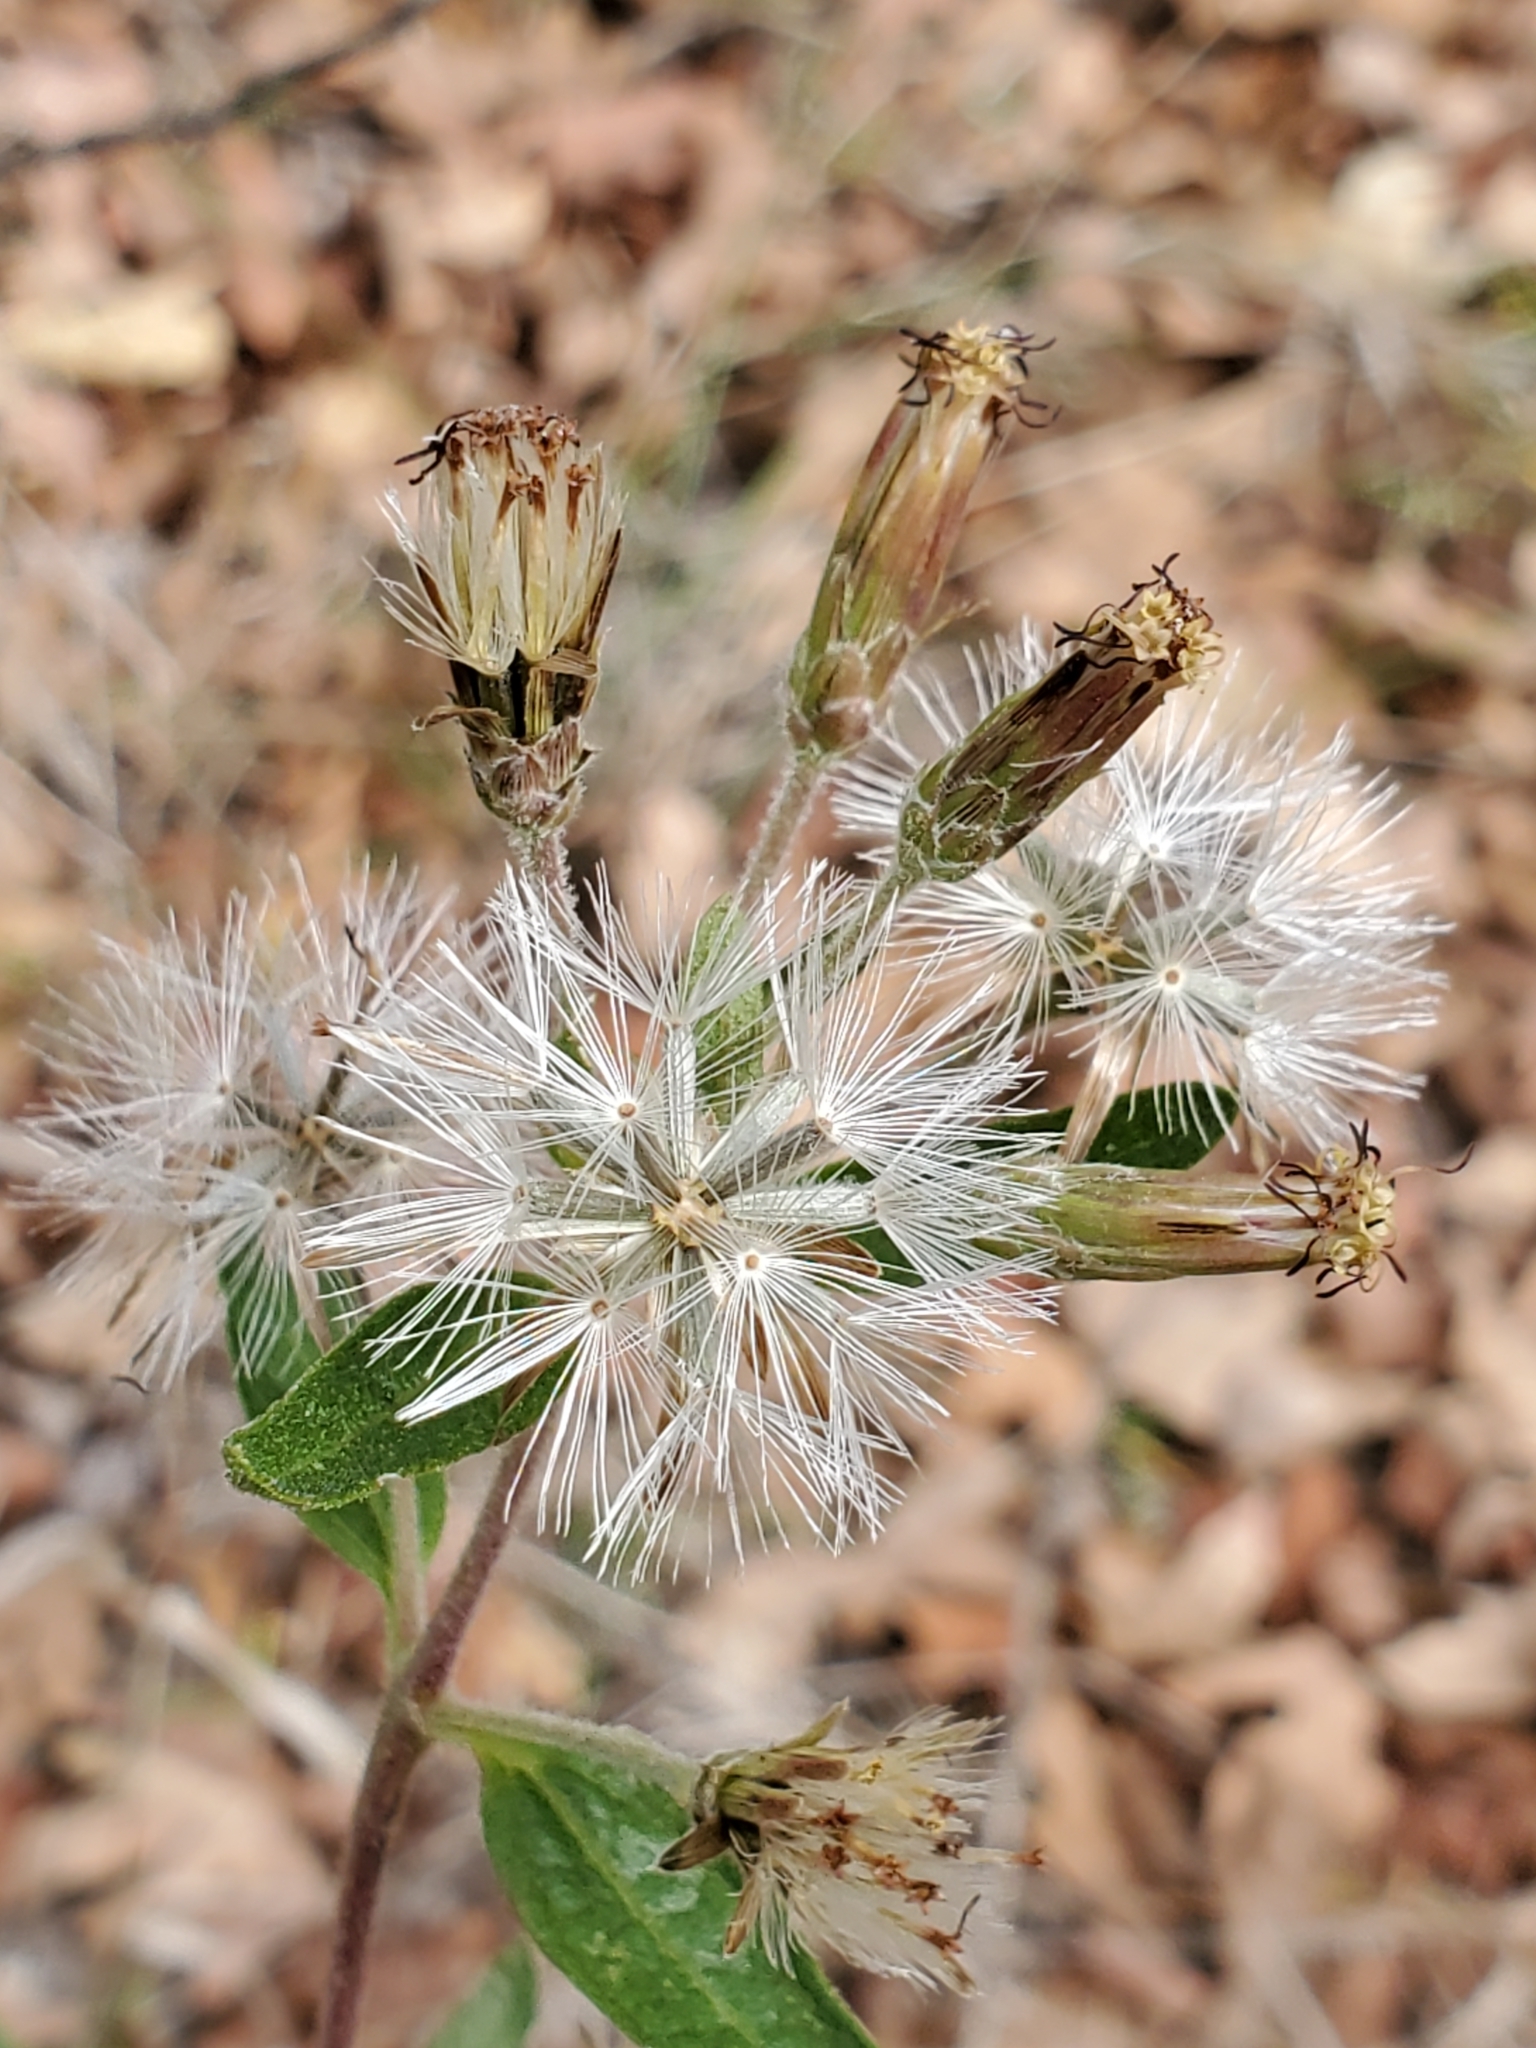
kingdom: Plantae
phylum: Tracheophyta
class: Magnoliopsida
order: Asterales
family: Asteraceae
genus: Brickellia
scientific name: Brickellia cylindracea
